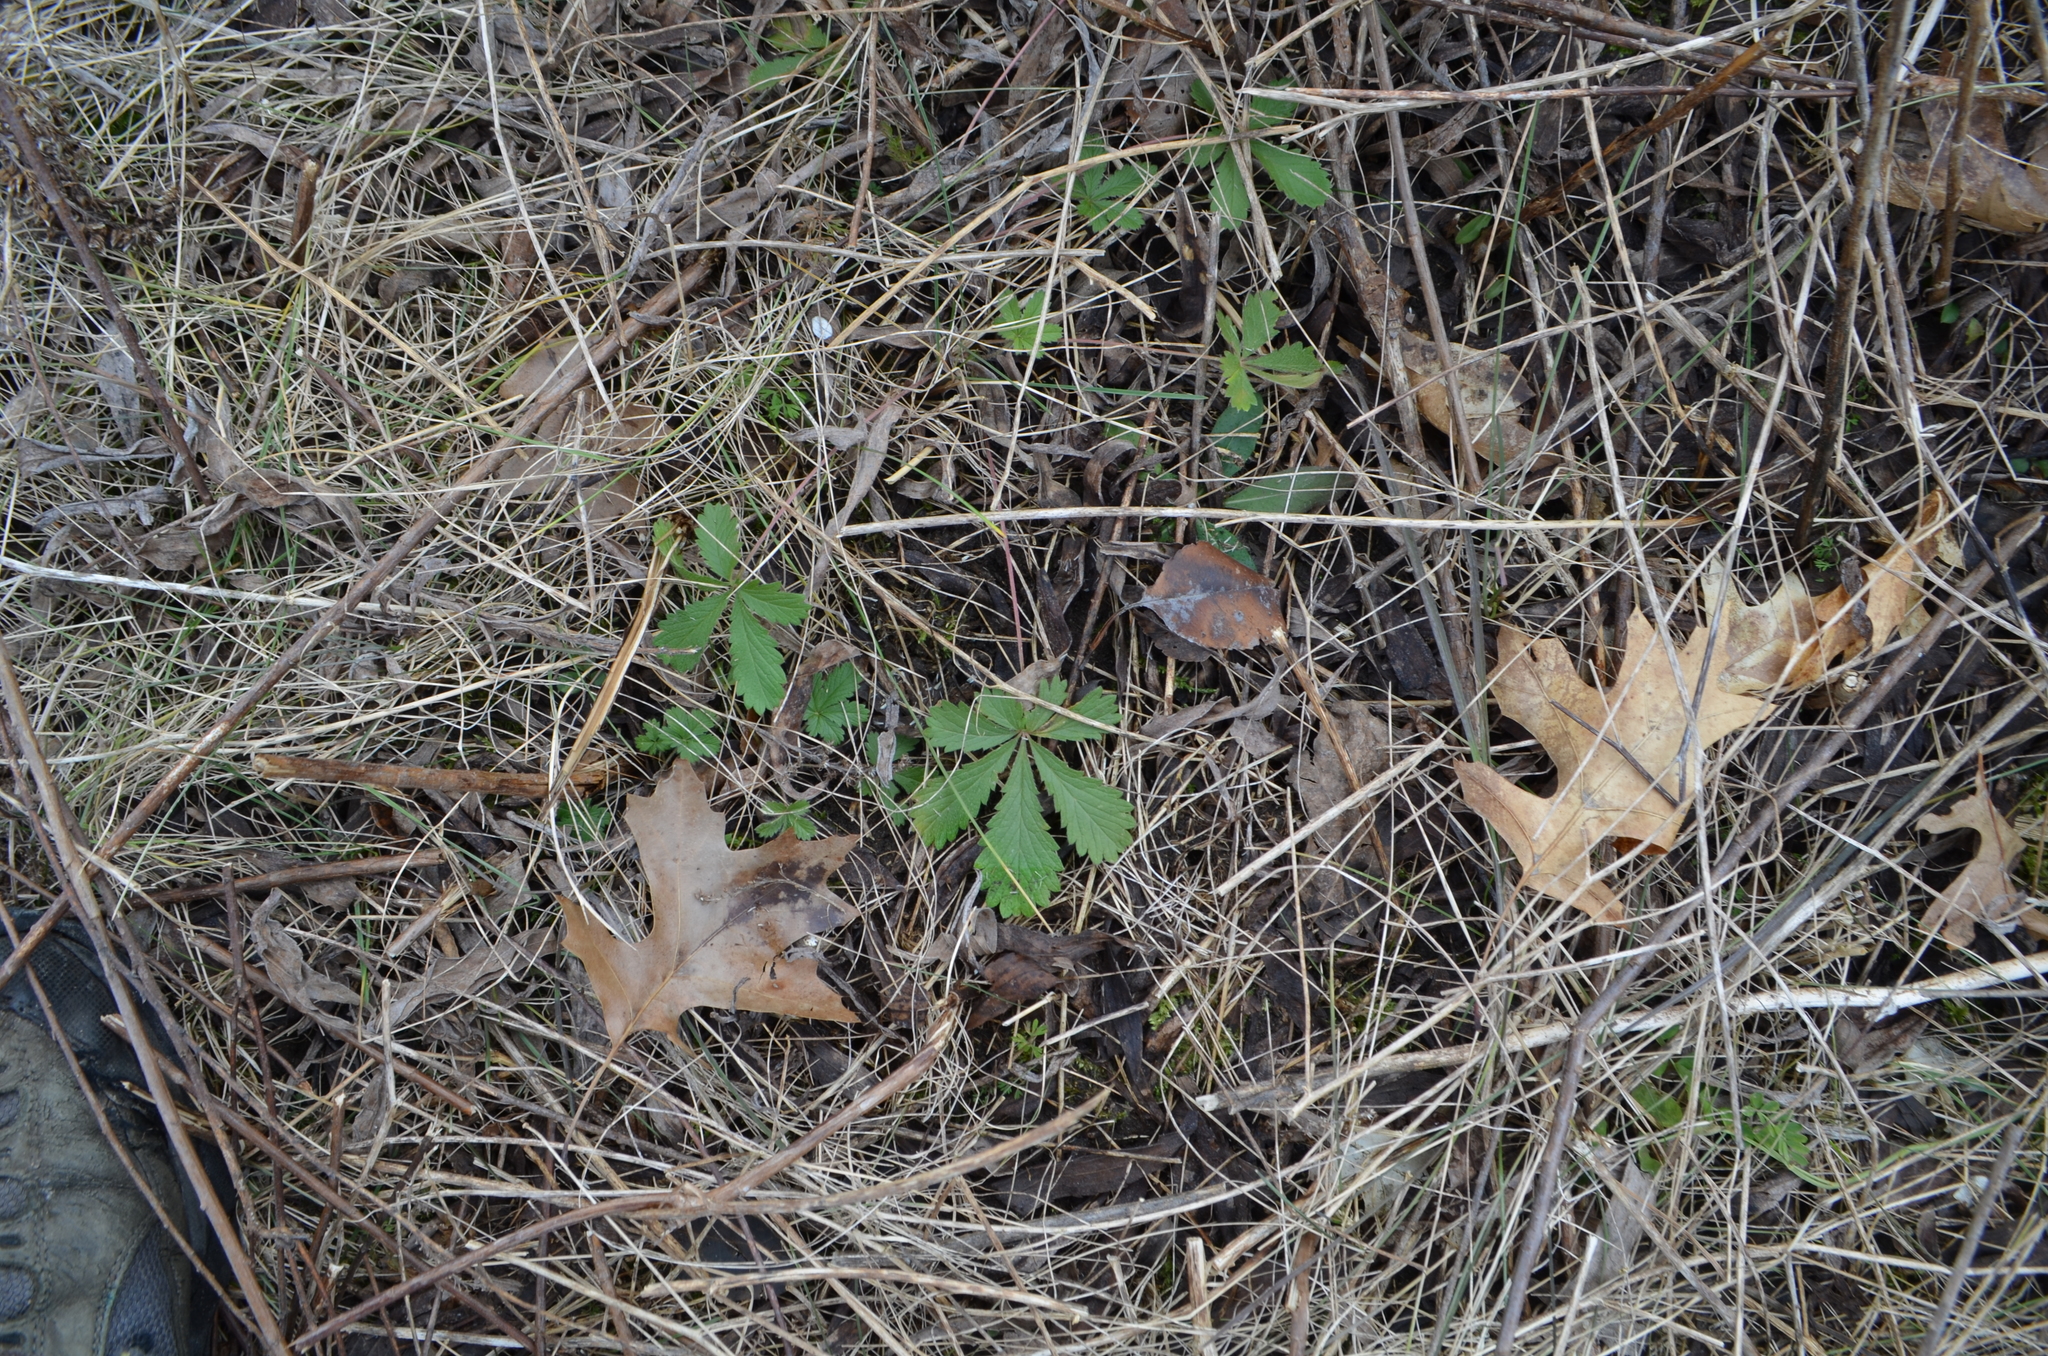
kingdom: Plantae
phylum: Tracheophyta
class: Magnoliopsida
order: Rosales
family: Rosaceae
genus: Potentilla
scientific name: Potentilla recta
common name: Sulphur cinquefoil
